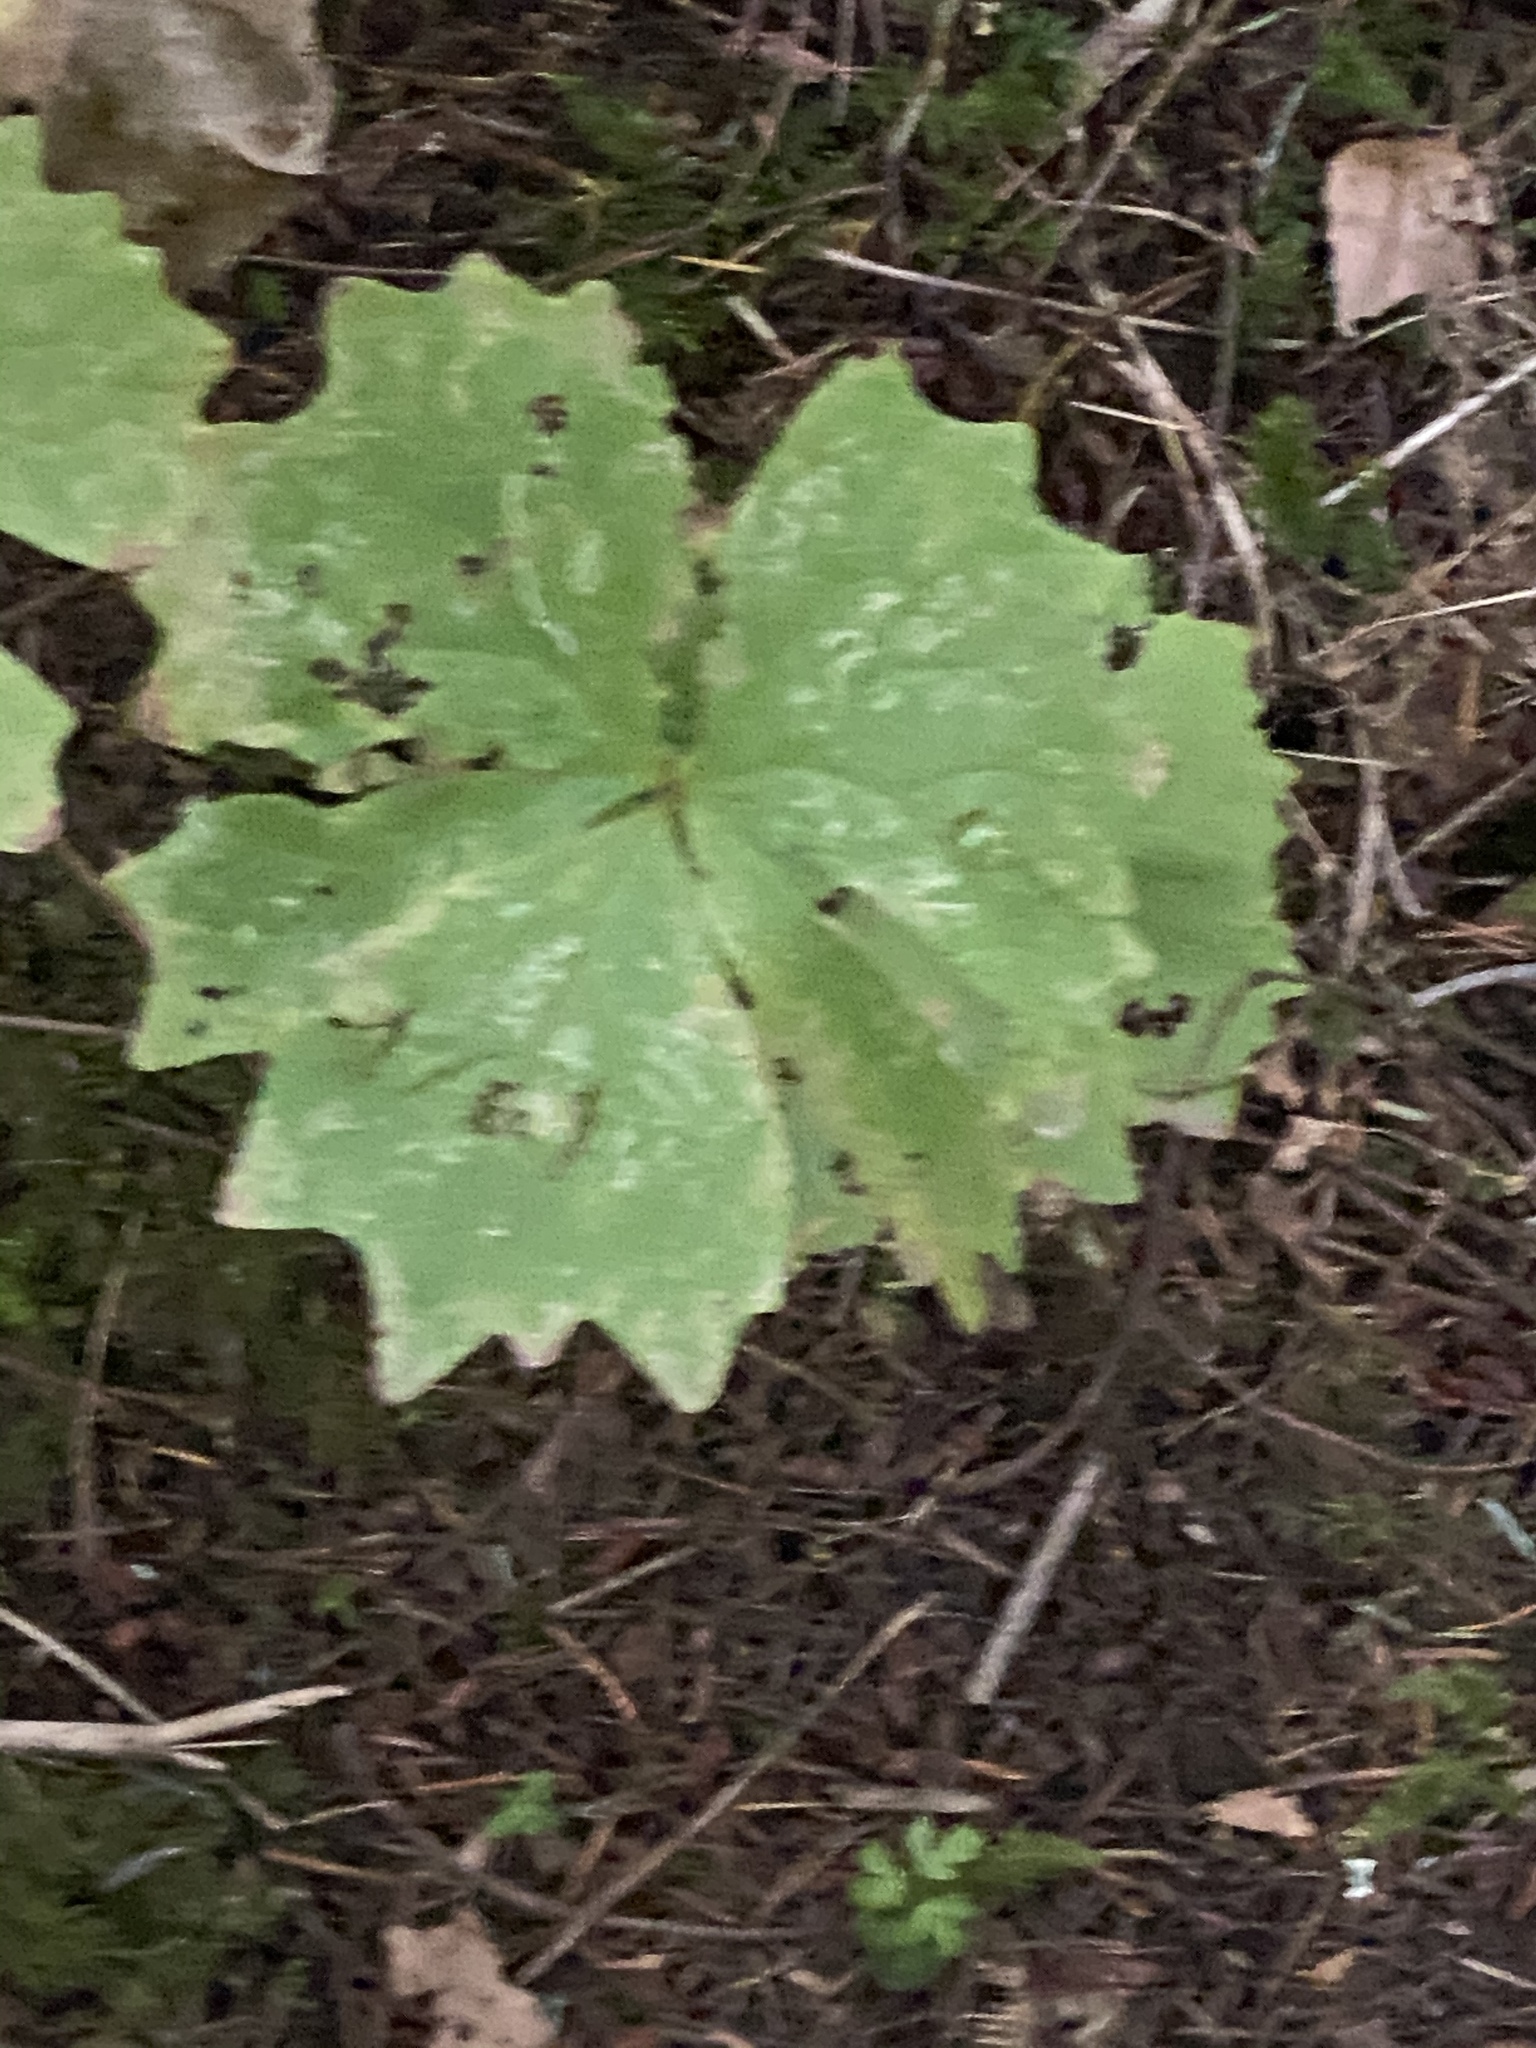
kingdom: Plantae
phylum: Tracheophyta
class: Magnoliopsida
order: Ranunculales
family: Berberidaceae
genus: Achlys
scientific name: Achlys triphylla
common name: Vanilla-leaf
